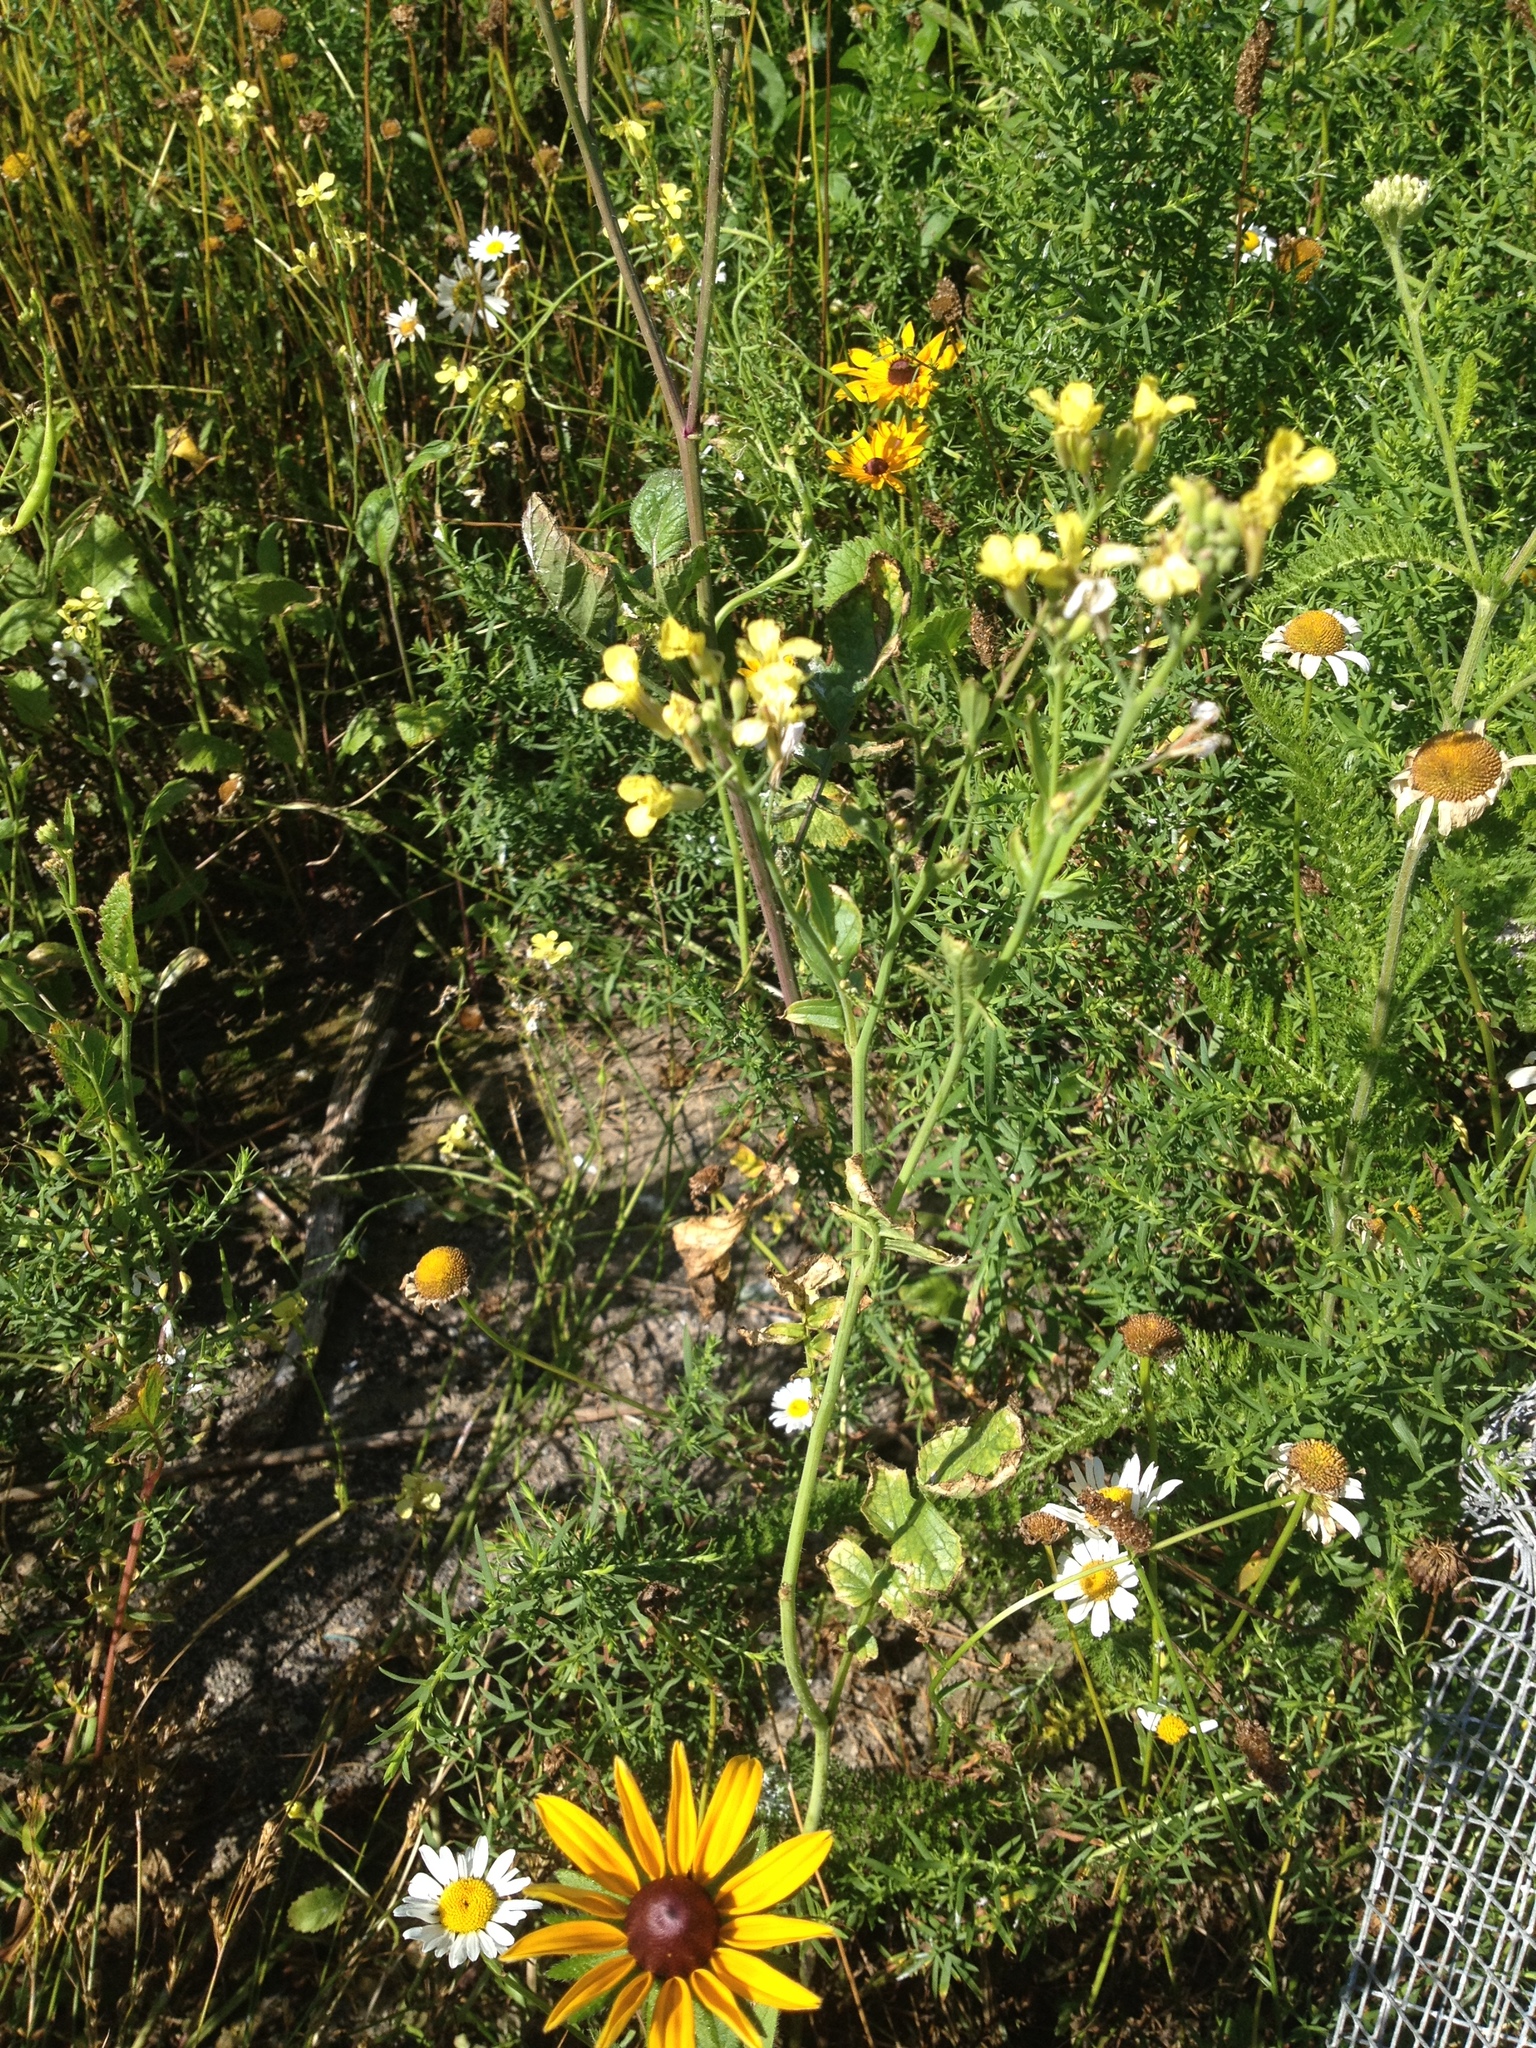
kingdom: Plantae
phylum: Tracheophyta
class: Magnoliopsida
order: Brassicales
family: Brassicaceae
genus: Raphanus
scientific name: Raphanus raphanistrum
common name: Wild radish
